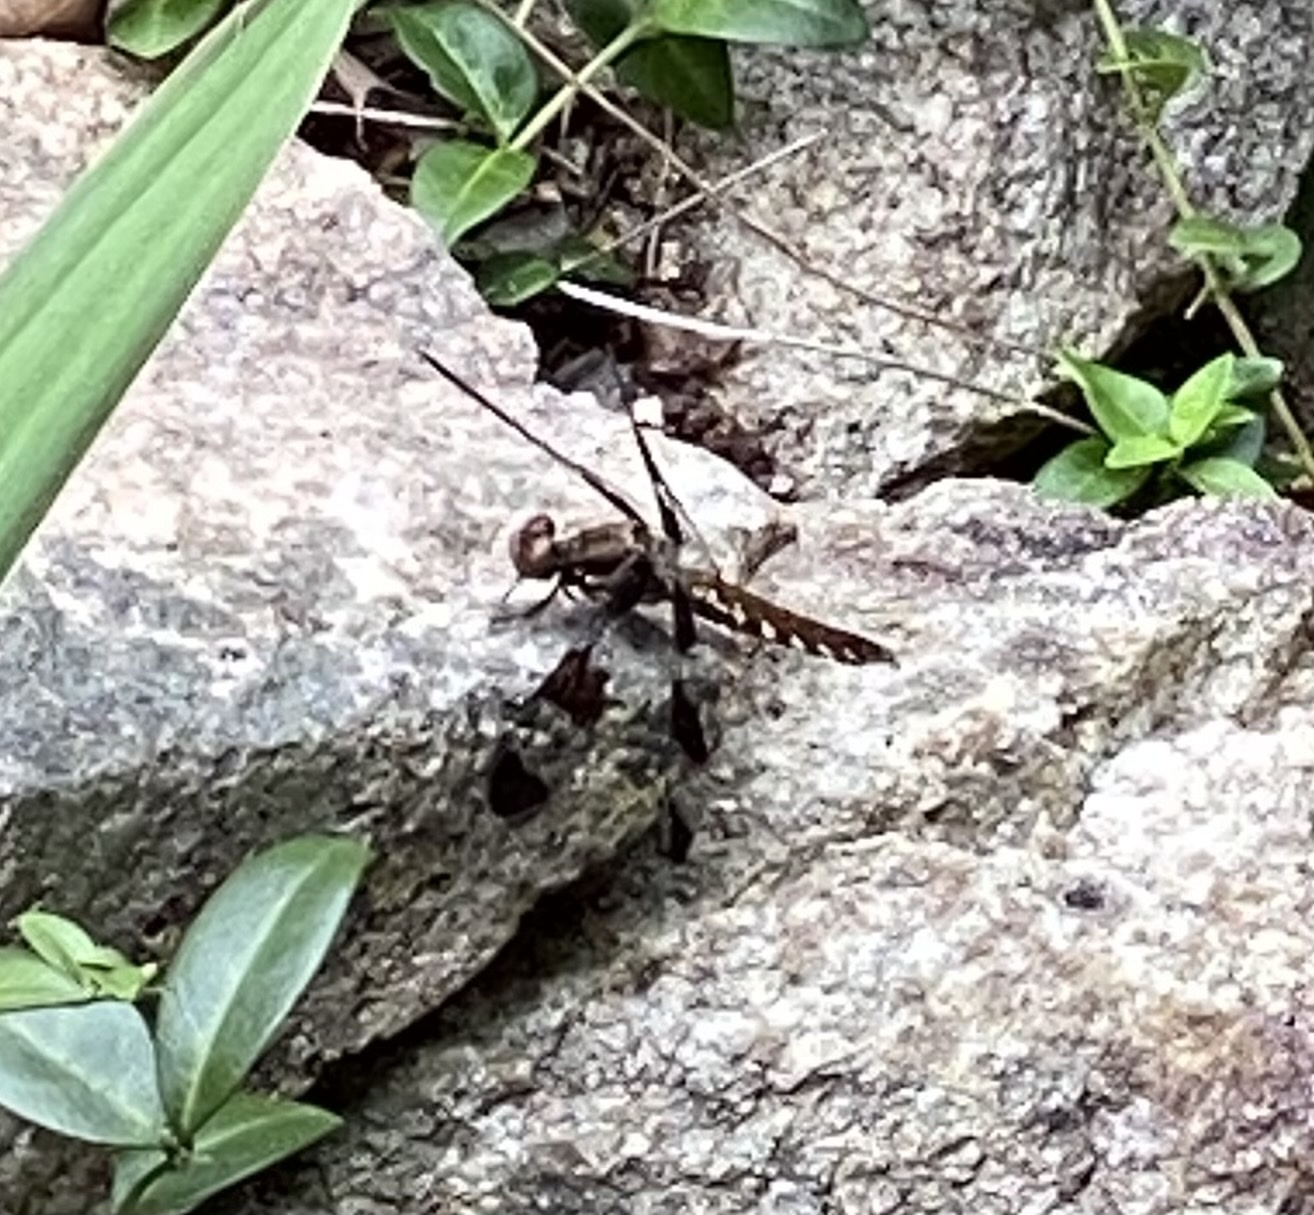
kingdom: Animalia
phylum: Arthropoda
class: Insecta
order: Odonata
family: Libellulidae
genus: Plathemis
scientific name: Plathemis lydia
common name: Common whitetail
